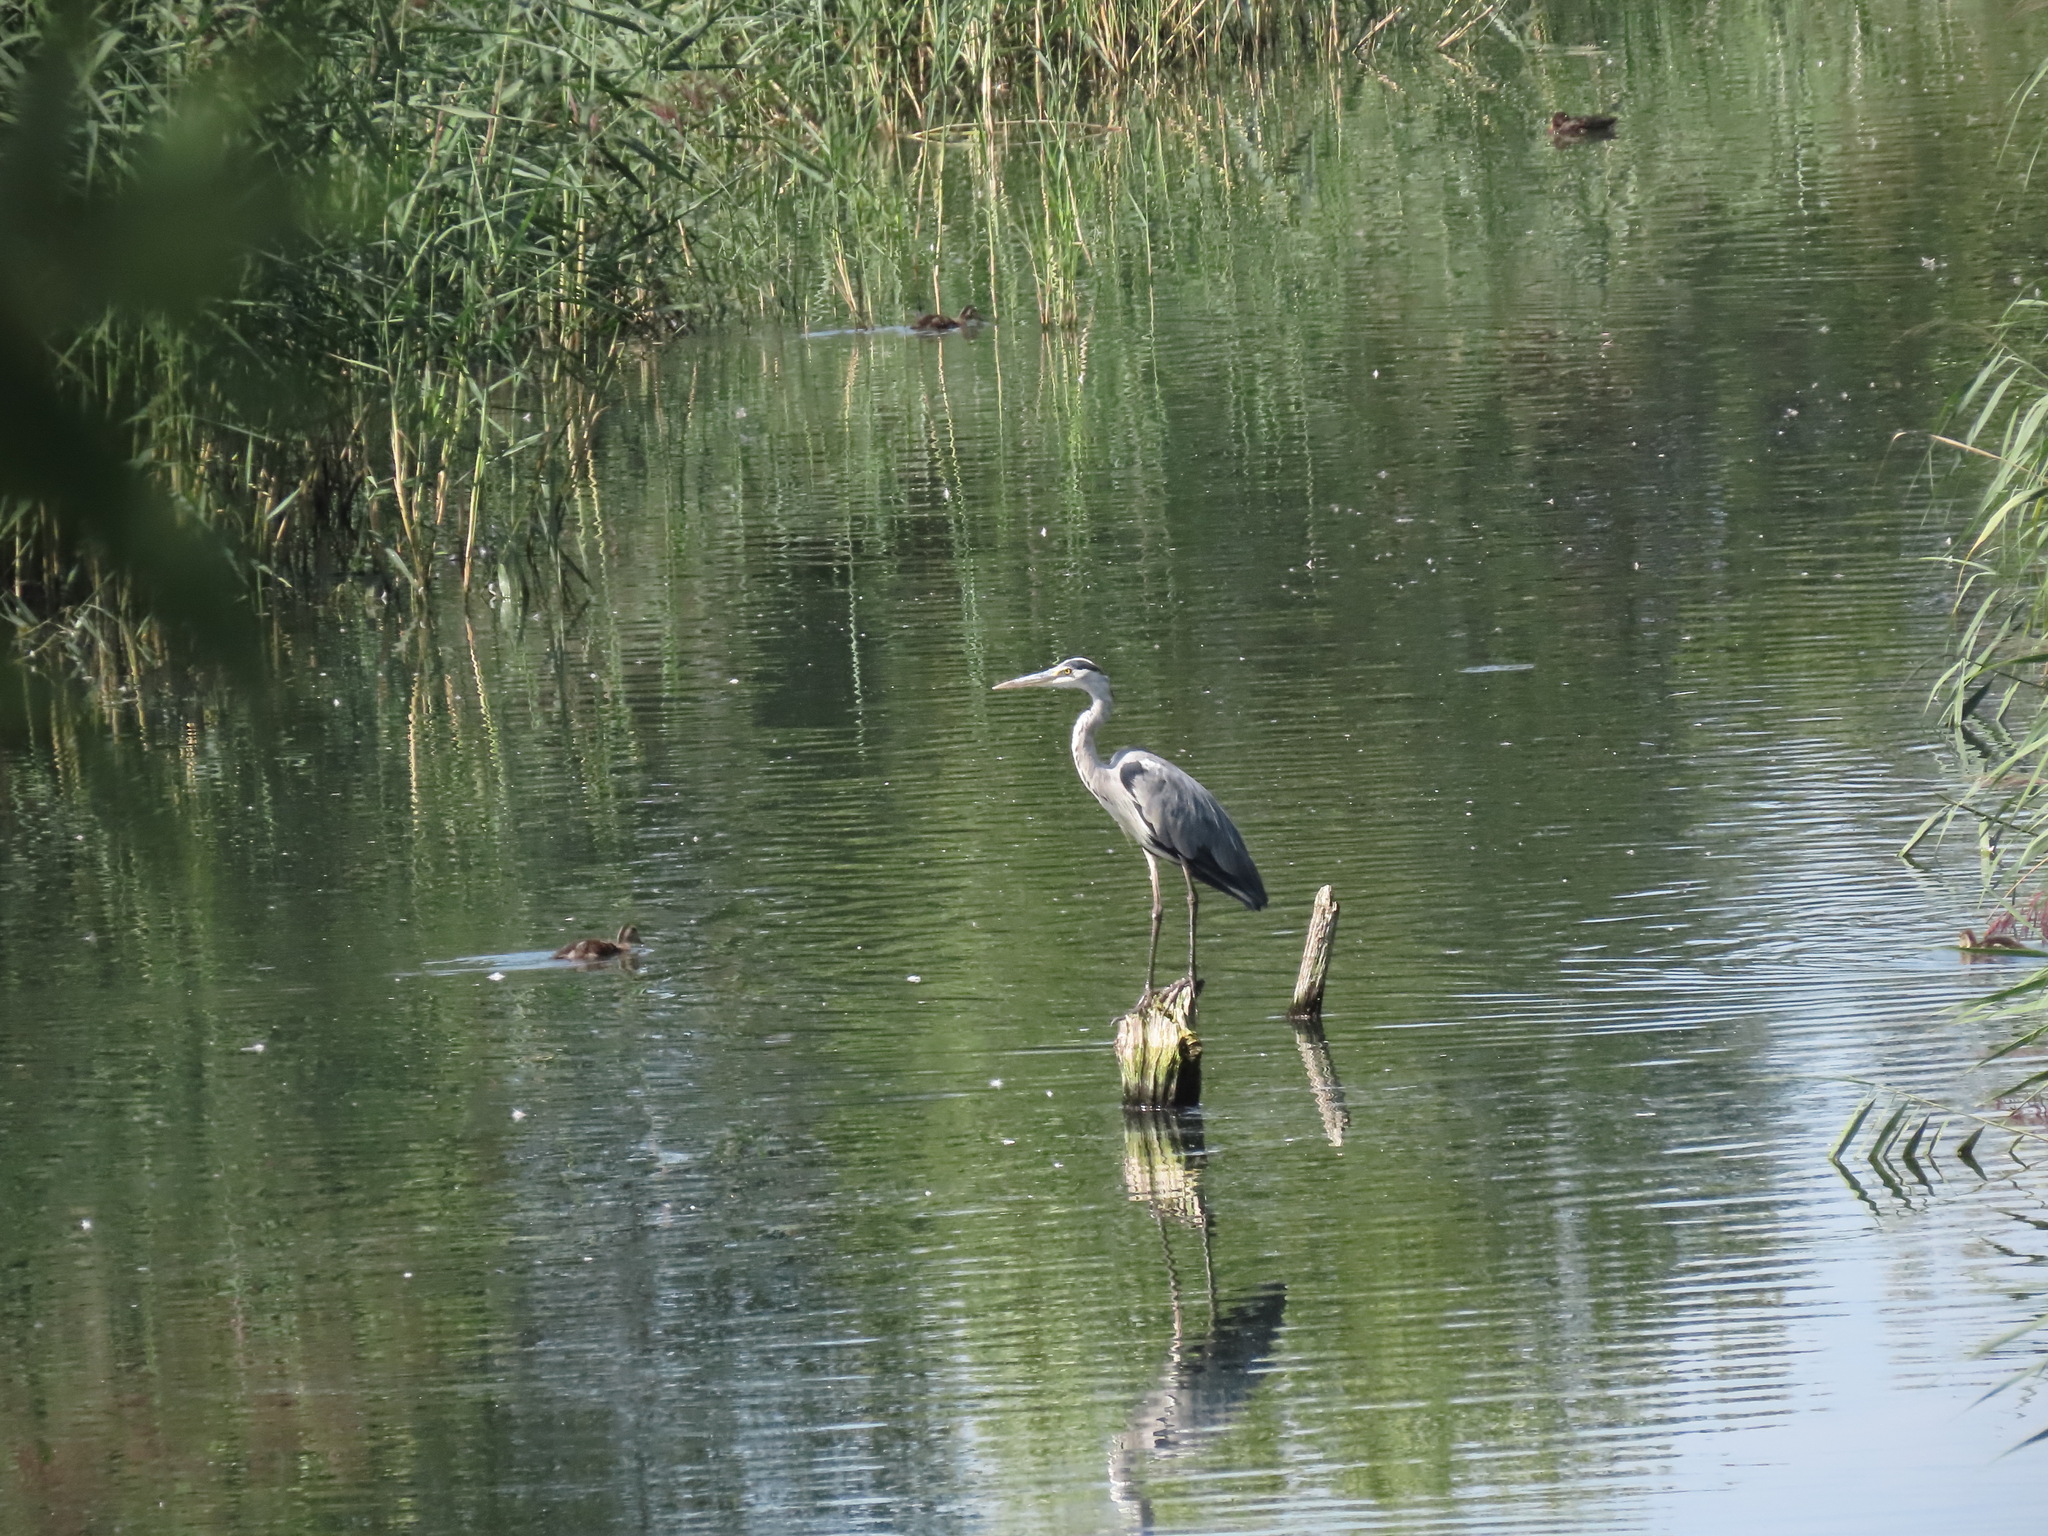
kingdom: Animalia
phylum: Chordata
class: Aves
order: Pelecaniformes
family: Ardeidae
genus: Ardea
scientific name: Ardea cinerea
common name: Grey heron
